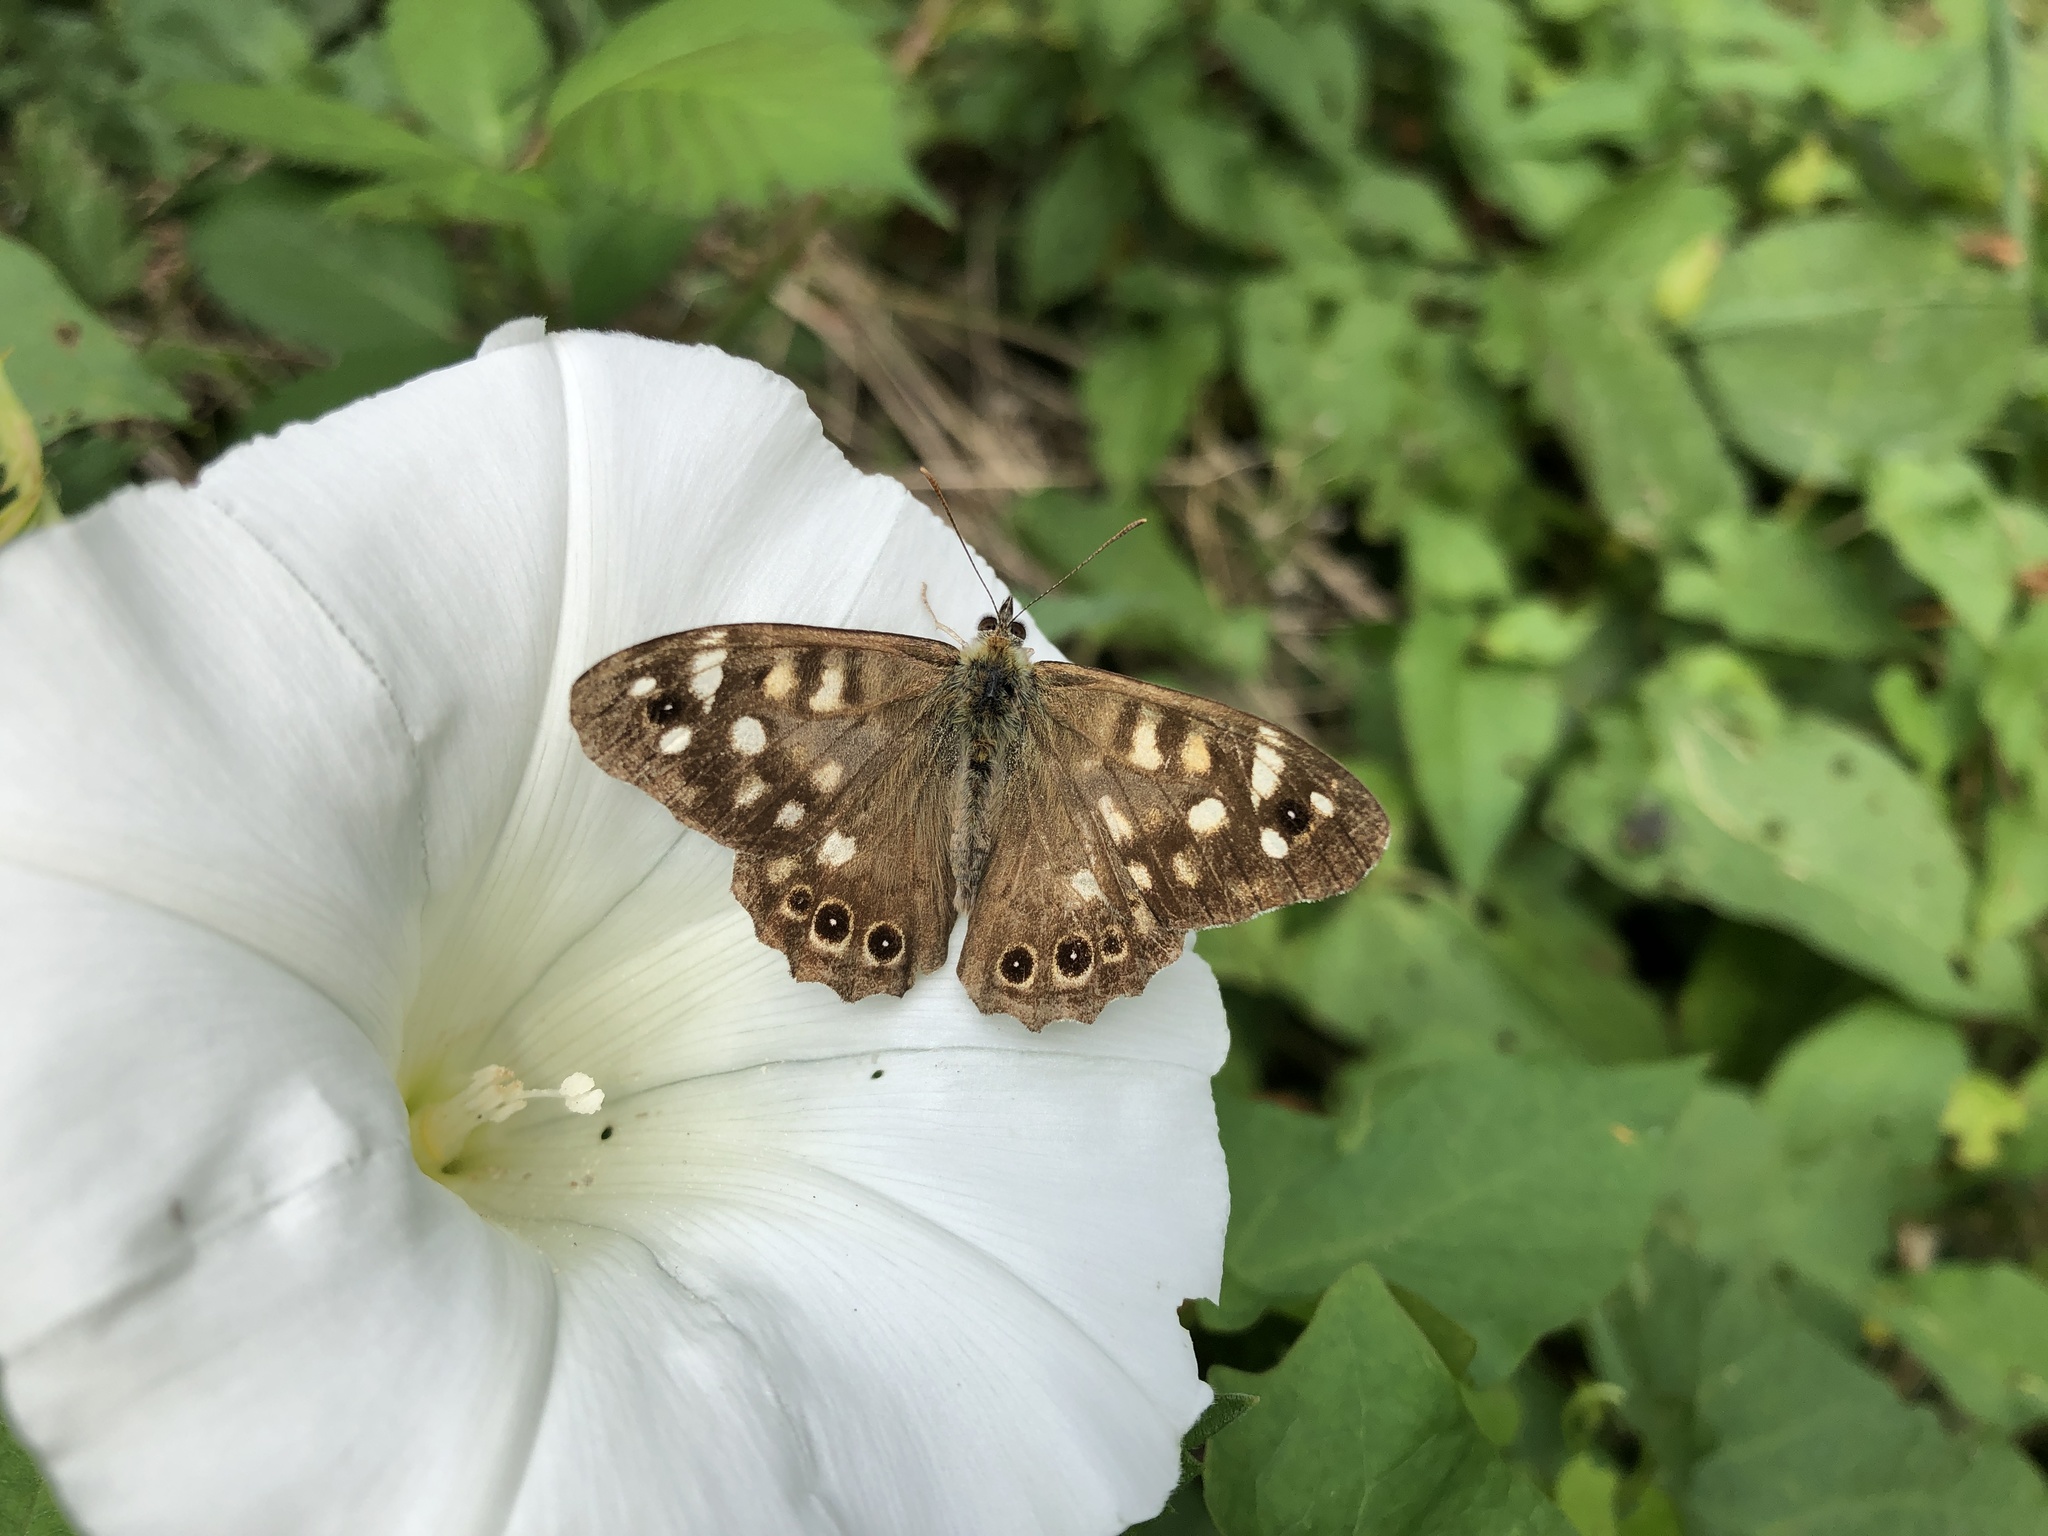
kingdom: Animalia
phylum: Arthropoda
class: Insecta
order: Lepidoptera
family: Nymphalidae
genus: Pararge
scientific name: Pararge aegeria
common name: Speckled wood
